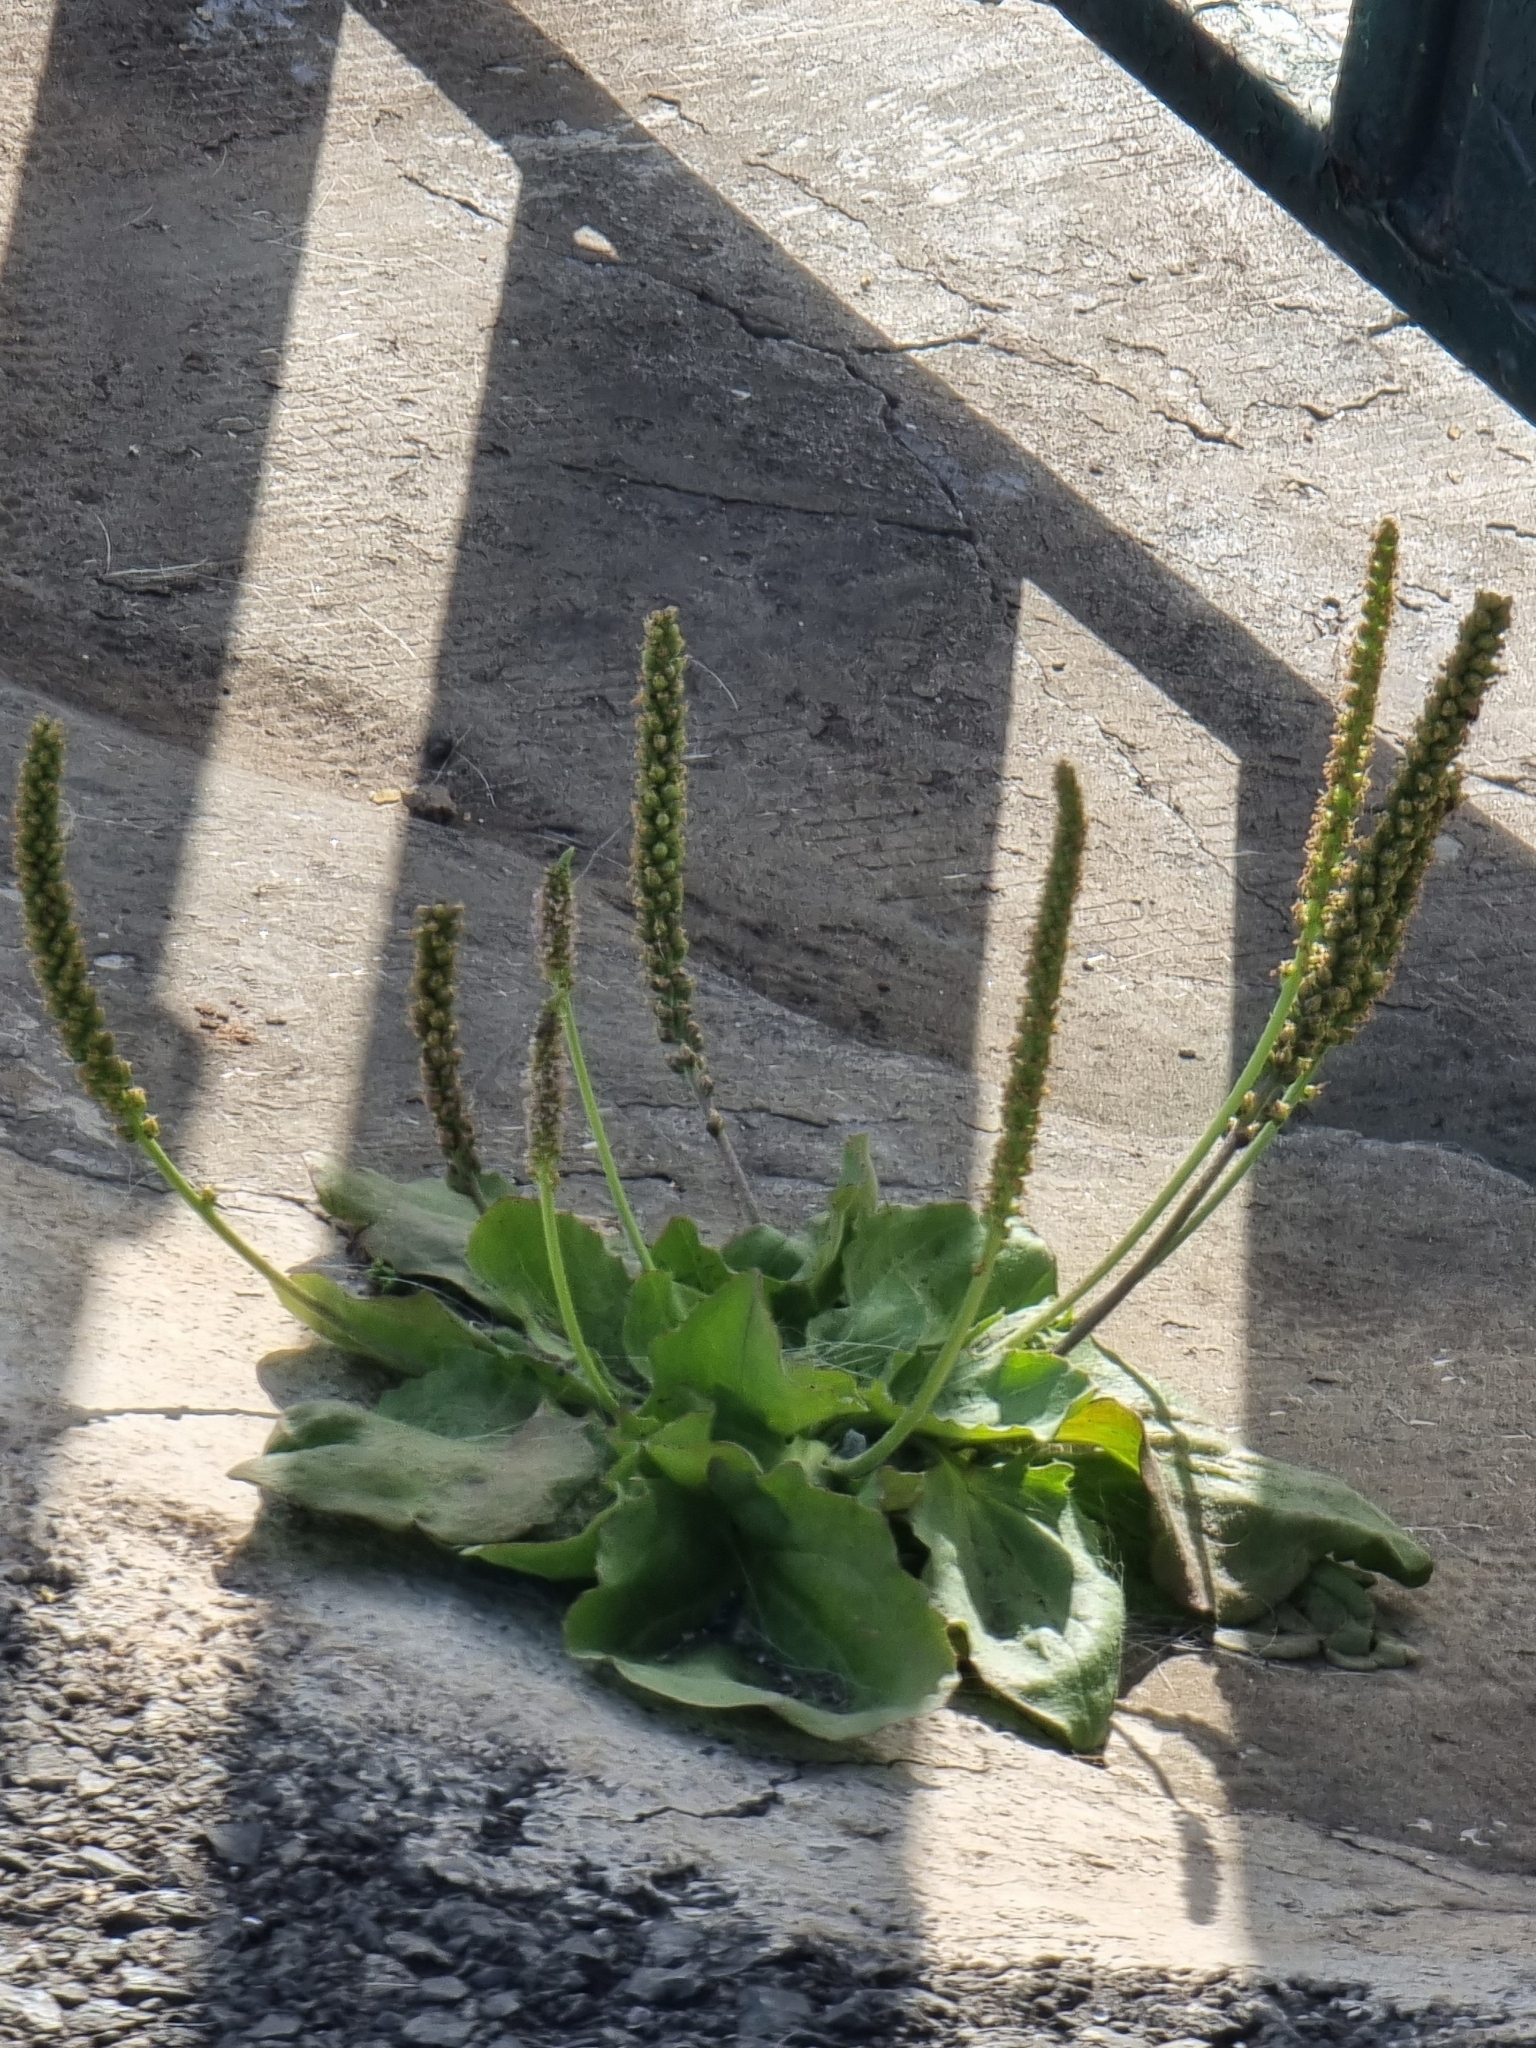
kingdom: Plantae
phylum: Tracheophyta
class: Magnoliopsida
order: Lamiales
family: Plantaginaceae
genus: Plantago
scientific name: Plantago major
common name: Common plantain
